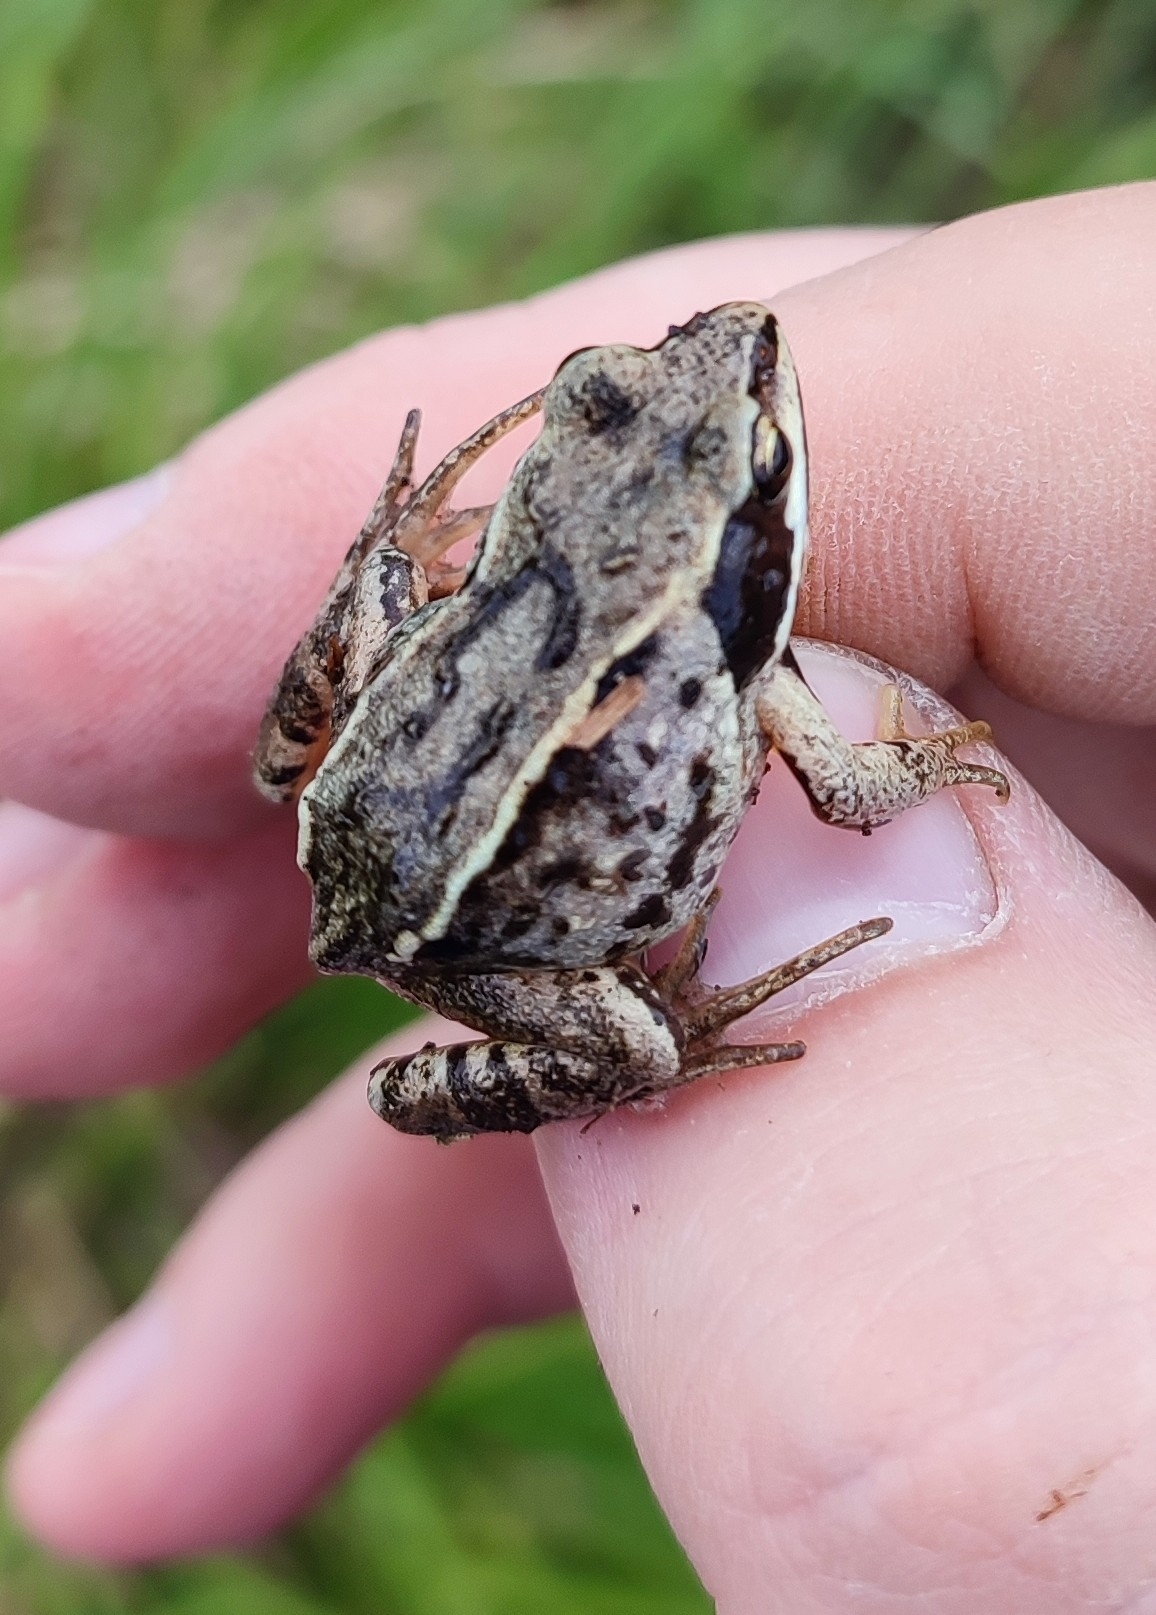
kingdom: Animalia
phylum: Chordata
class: Amphibia
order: Anura
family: Ranidae
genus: Rana
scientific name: Rana arvalis
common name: Moor frog
